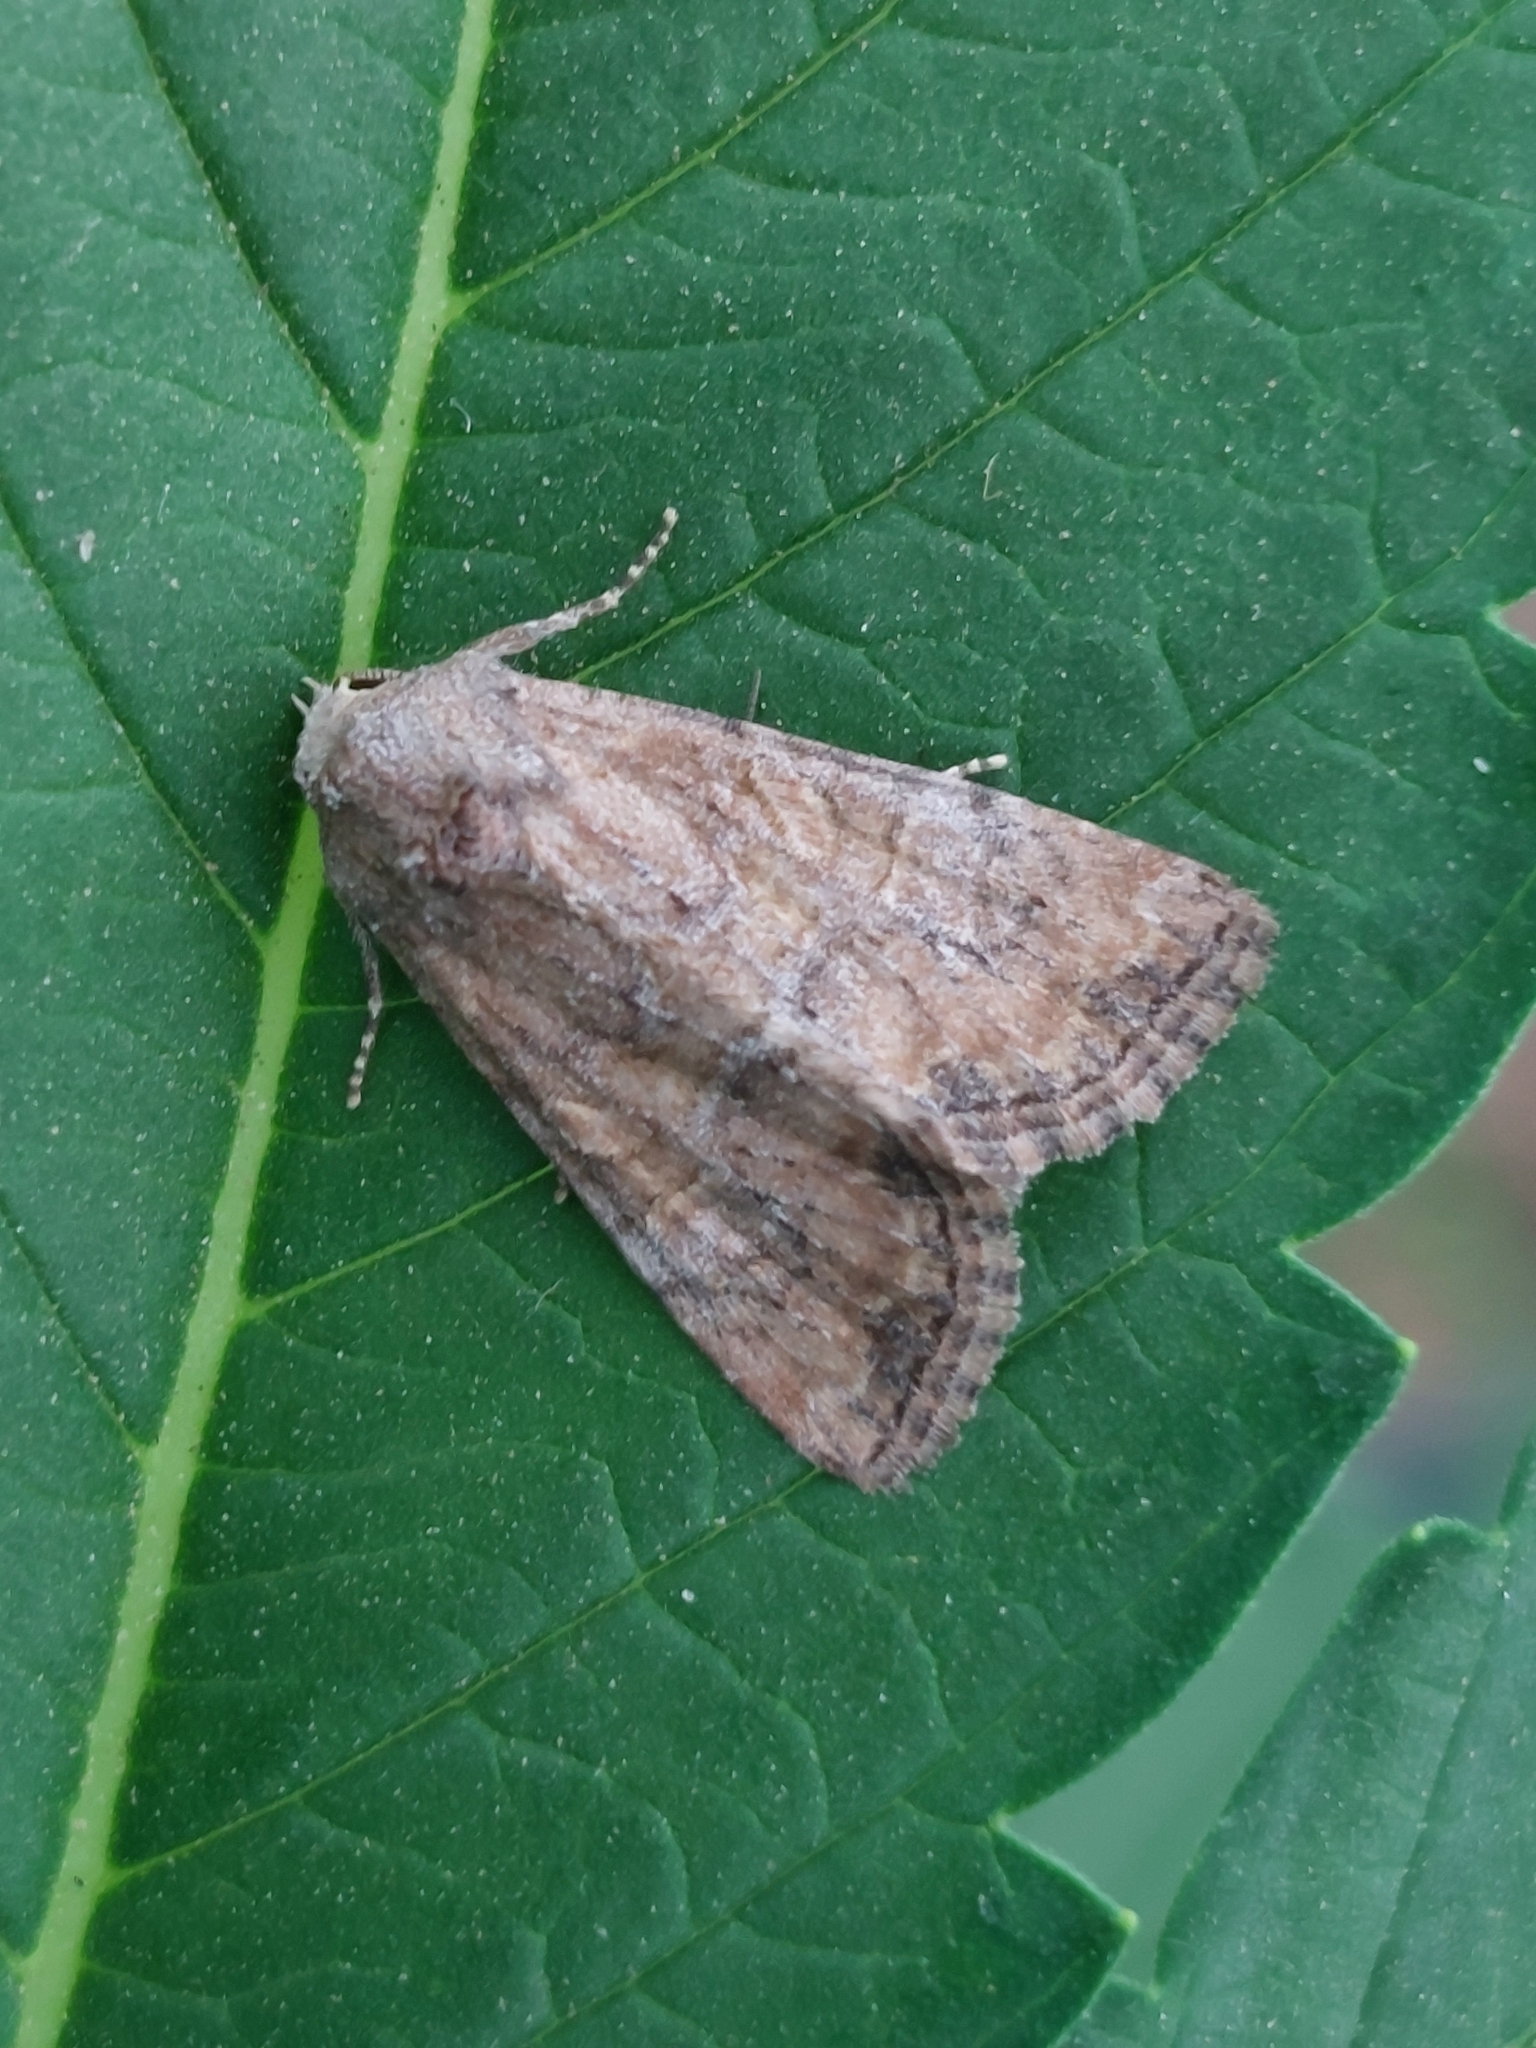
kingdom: Animalia
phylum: Arthropoda
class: Insecta
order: Lepidoptera
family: Noctuidae
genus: Mesoligia
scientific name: Mesoligia furuncula
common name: Cloaked minor
